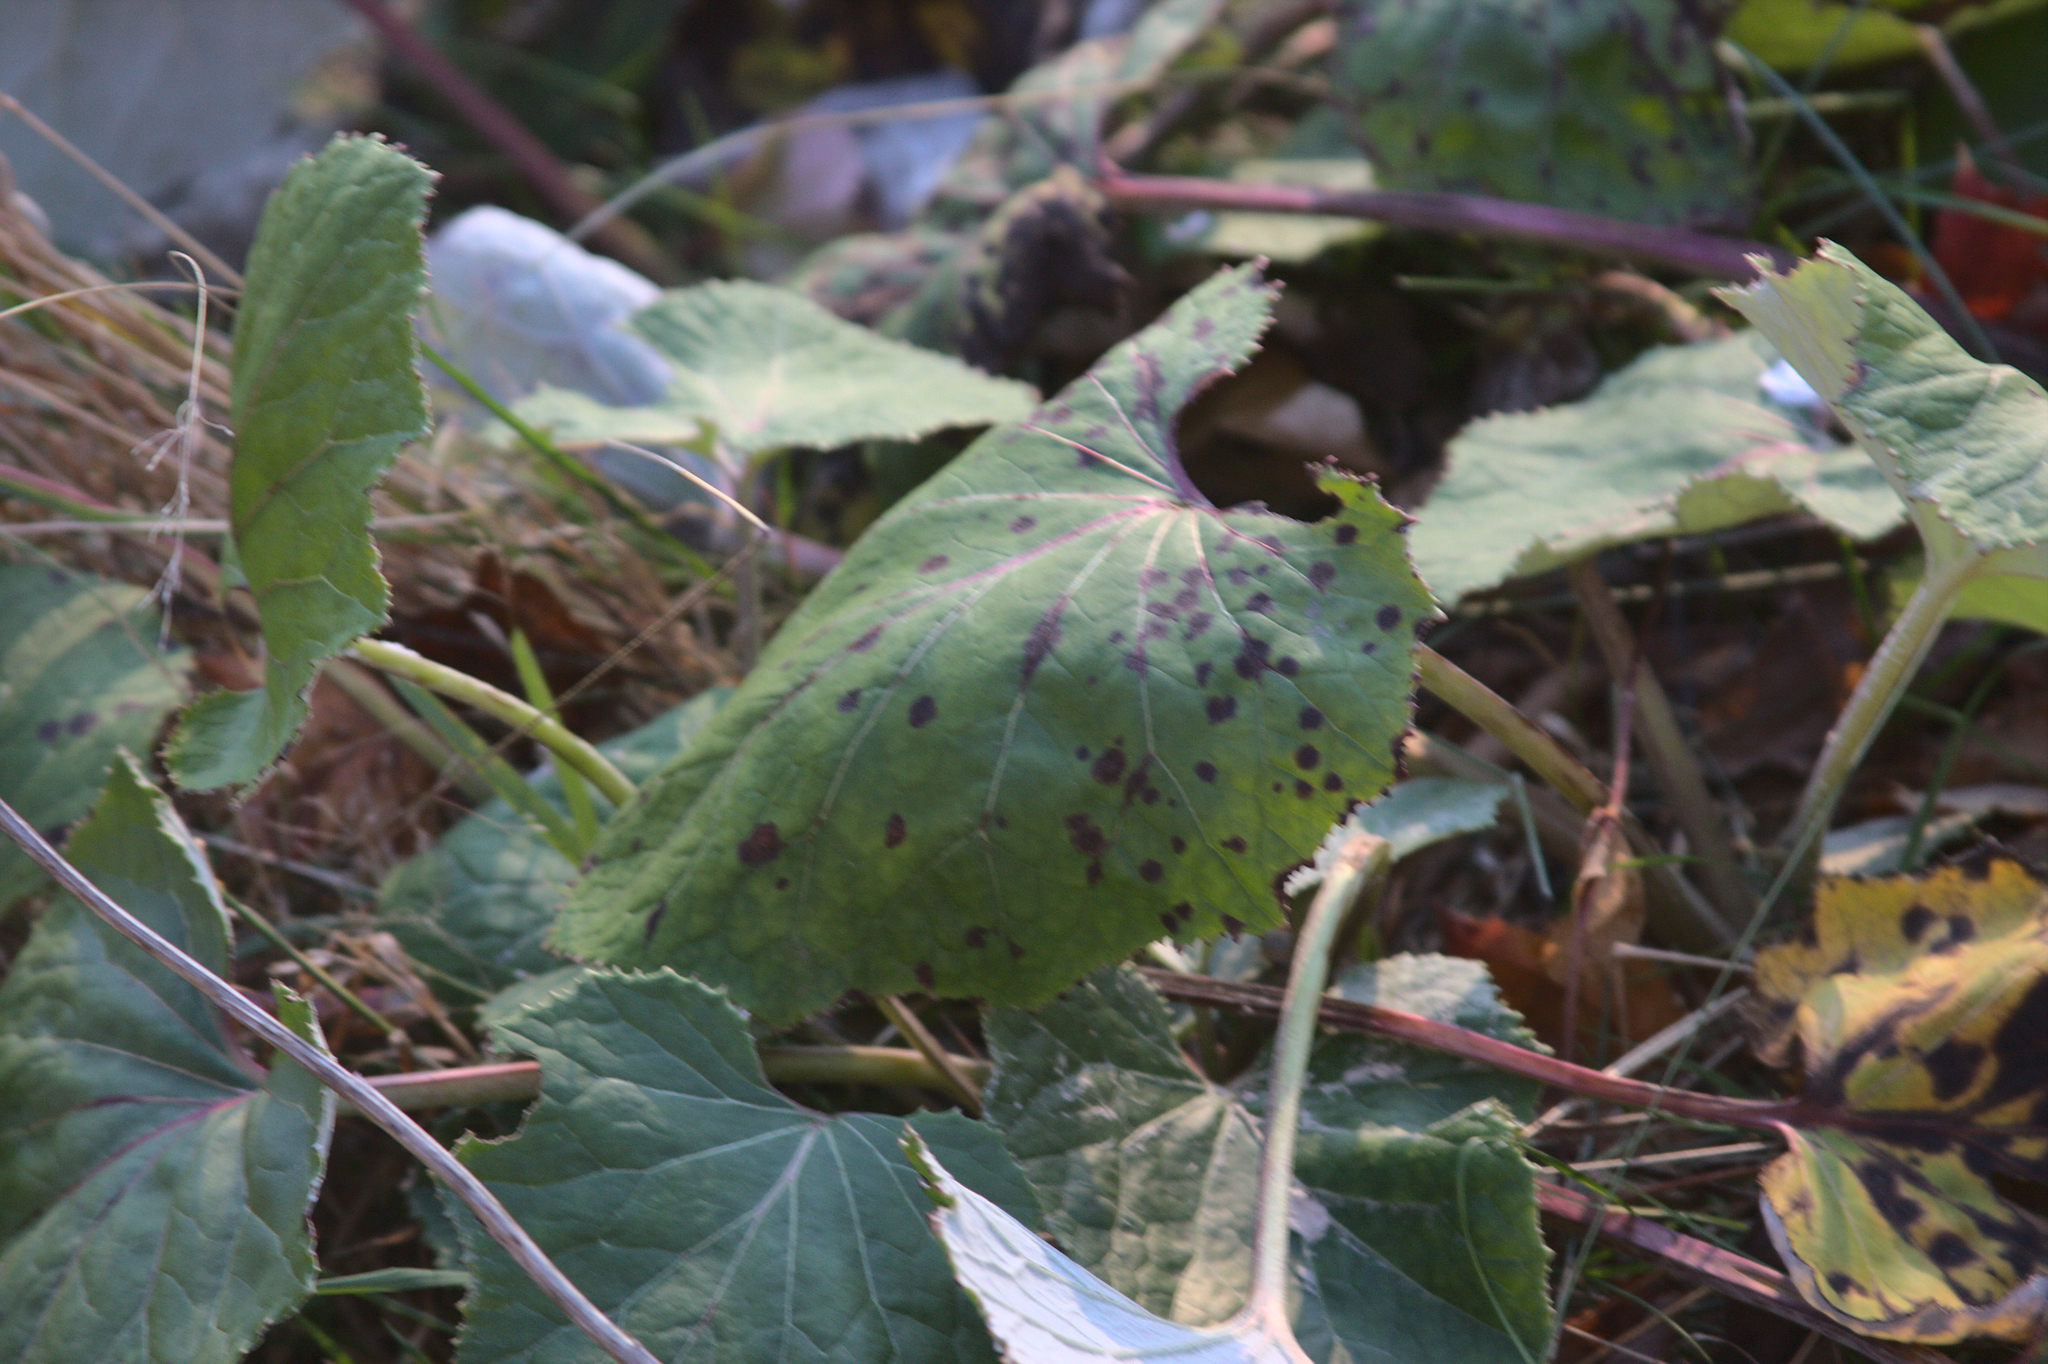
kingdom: Plantae
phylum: Tracheophyta
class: Magnoliopsida
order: Asterales
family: Asteraceae
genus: Tussilago
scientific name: Tussilago farfara
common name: Coltsfoot
